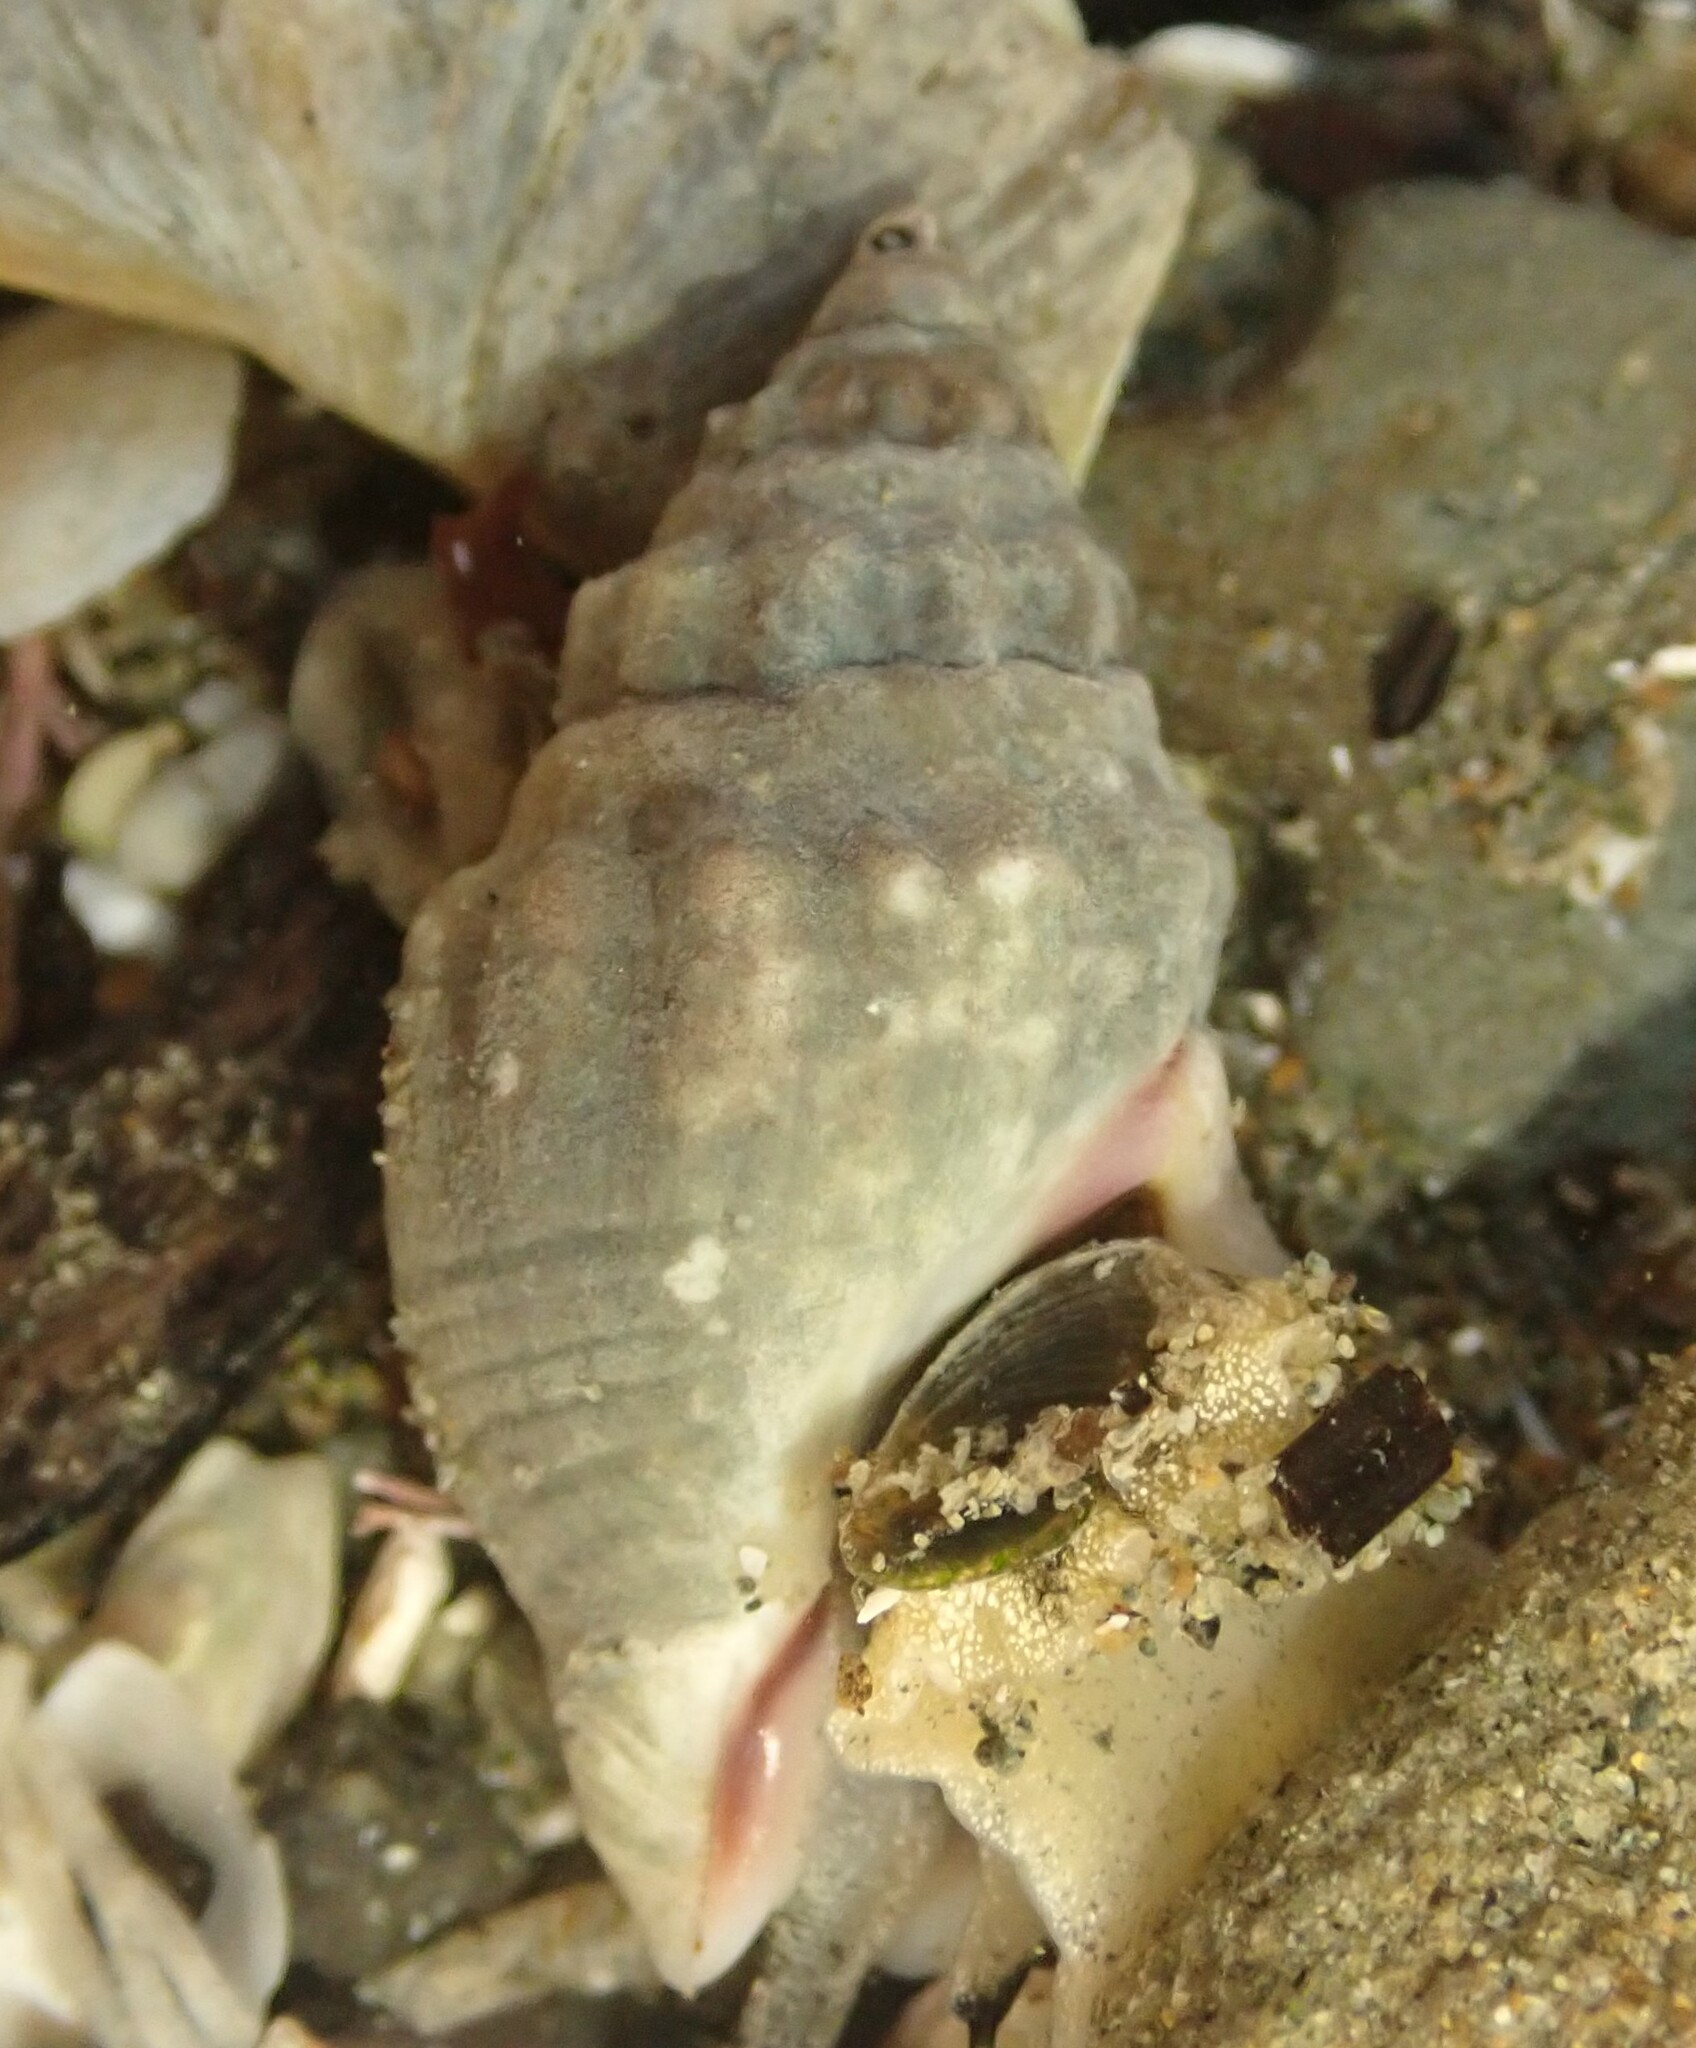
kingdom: Animalia
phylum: Mollusca
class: Gastropoda
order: Neogastropoda
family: Cominellidae
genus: Cominella
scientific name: Cominella glandiformis
